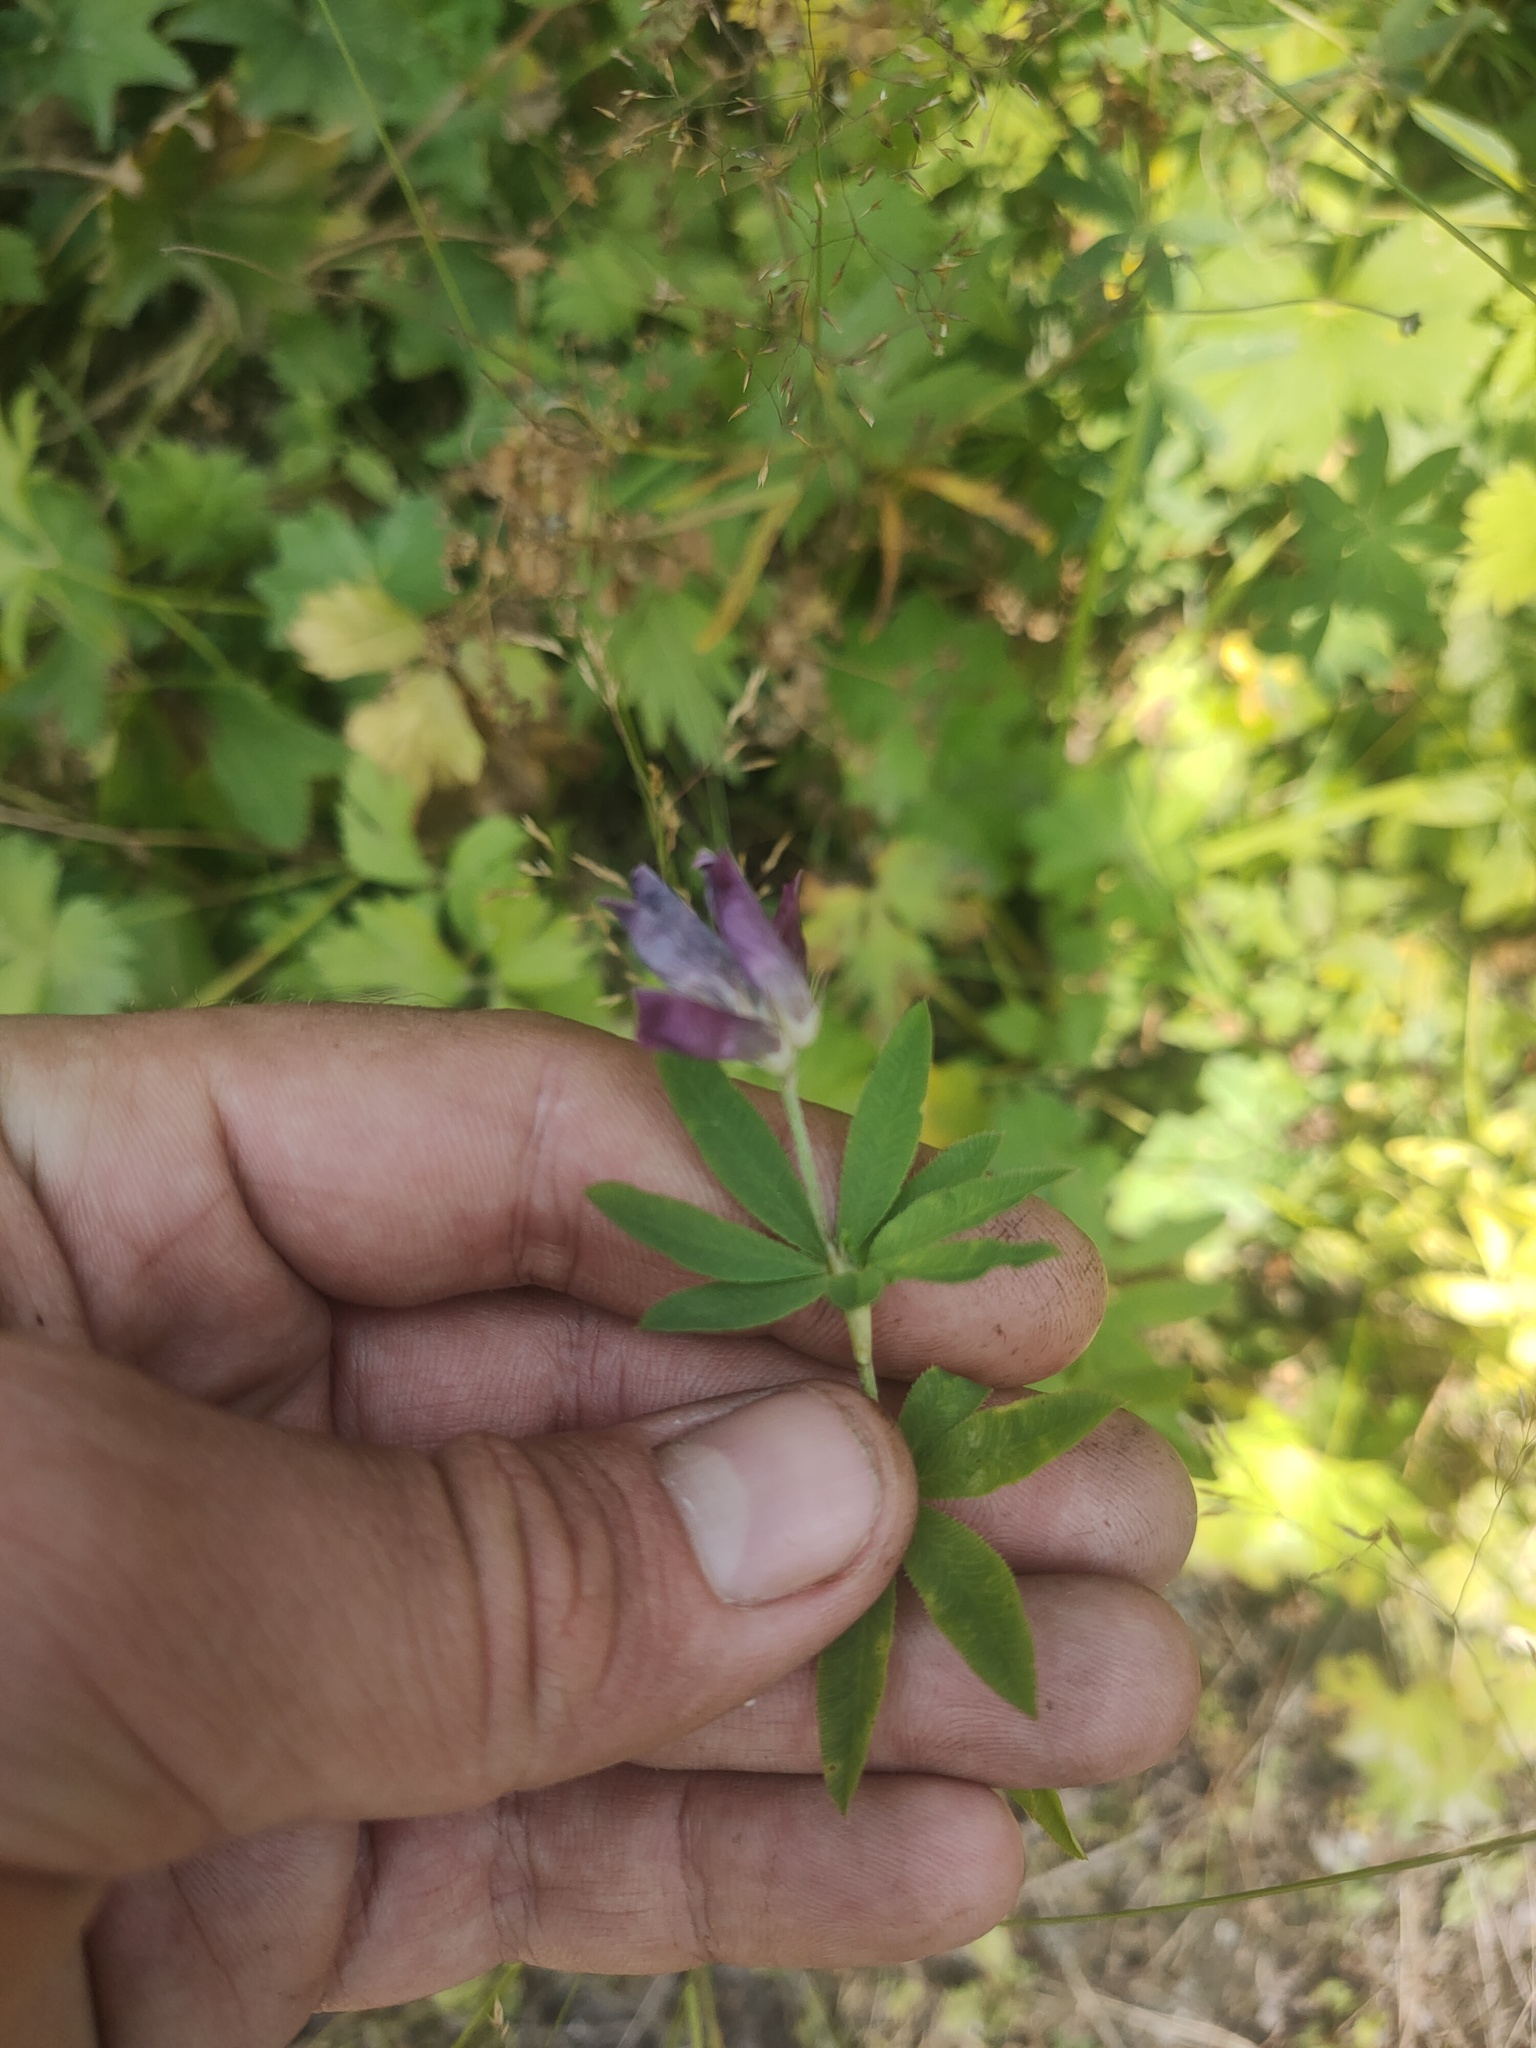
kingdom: Plantae
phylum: Tracheophyta
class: Magnoliopsida
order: Fabales
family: Fabaceae
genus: Trifolium
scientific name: Trifolium lupinaster
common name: Lupine clover
